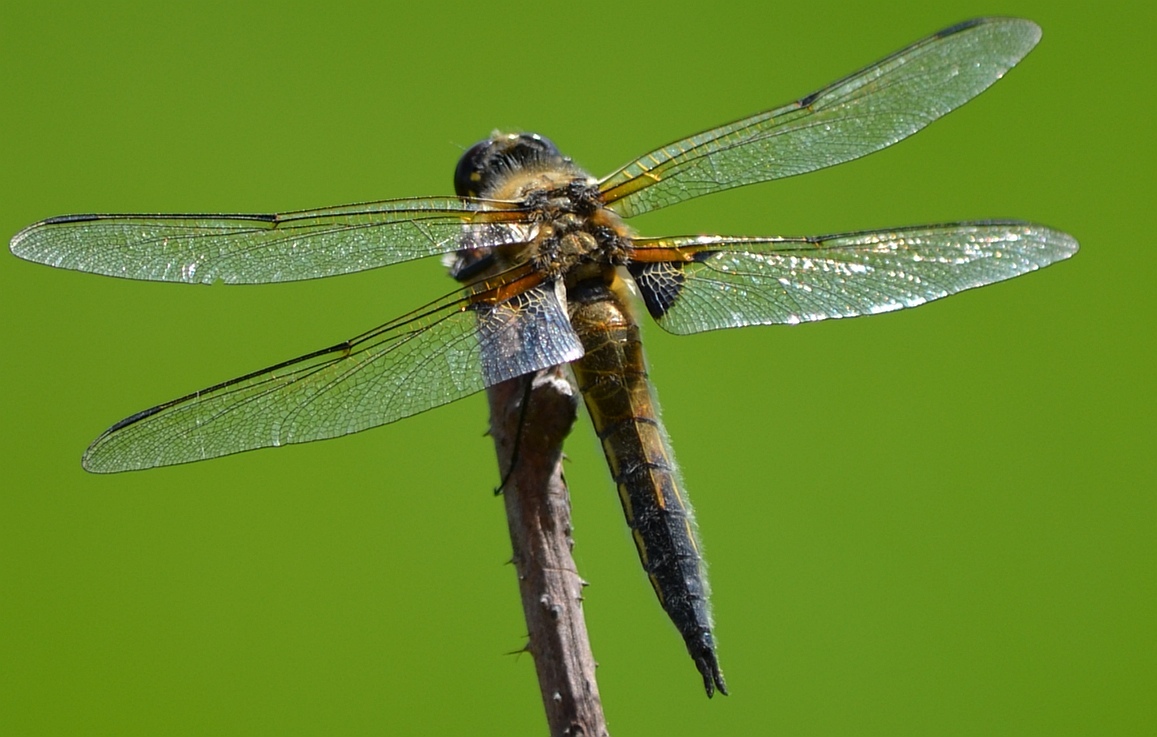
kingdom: Animalia
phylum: Arthropoda
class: Insecta
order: Odonata
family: Libellulidae
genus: Libellula
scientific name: Libellula quadrimaculata
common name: Four-spotted chaser
